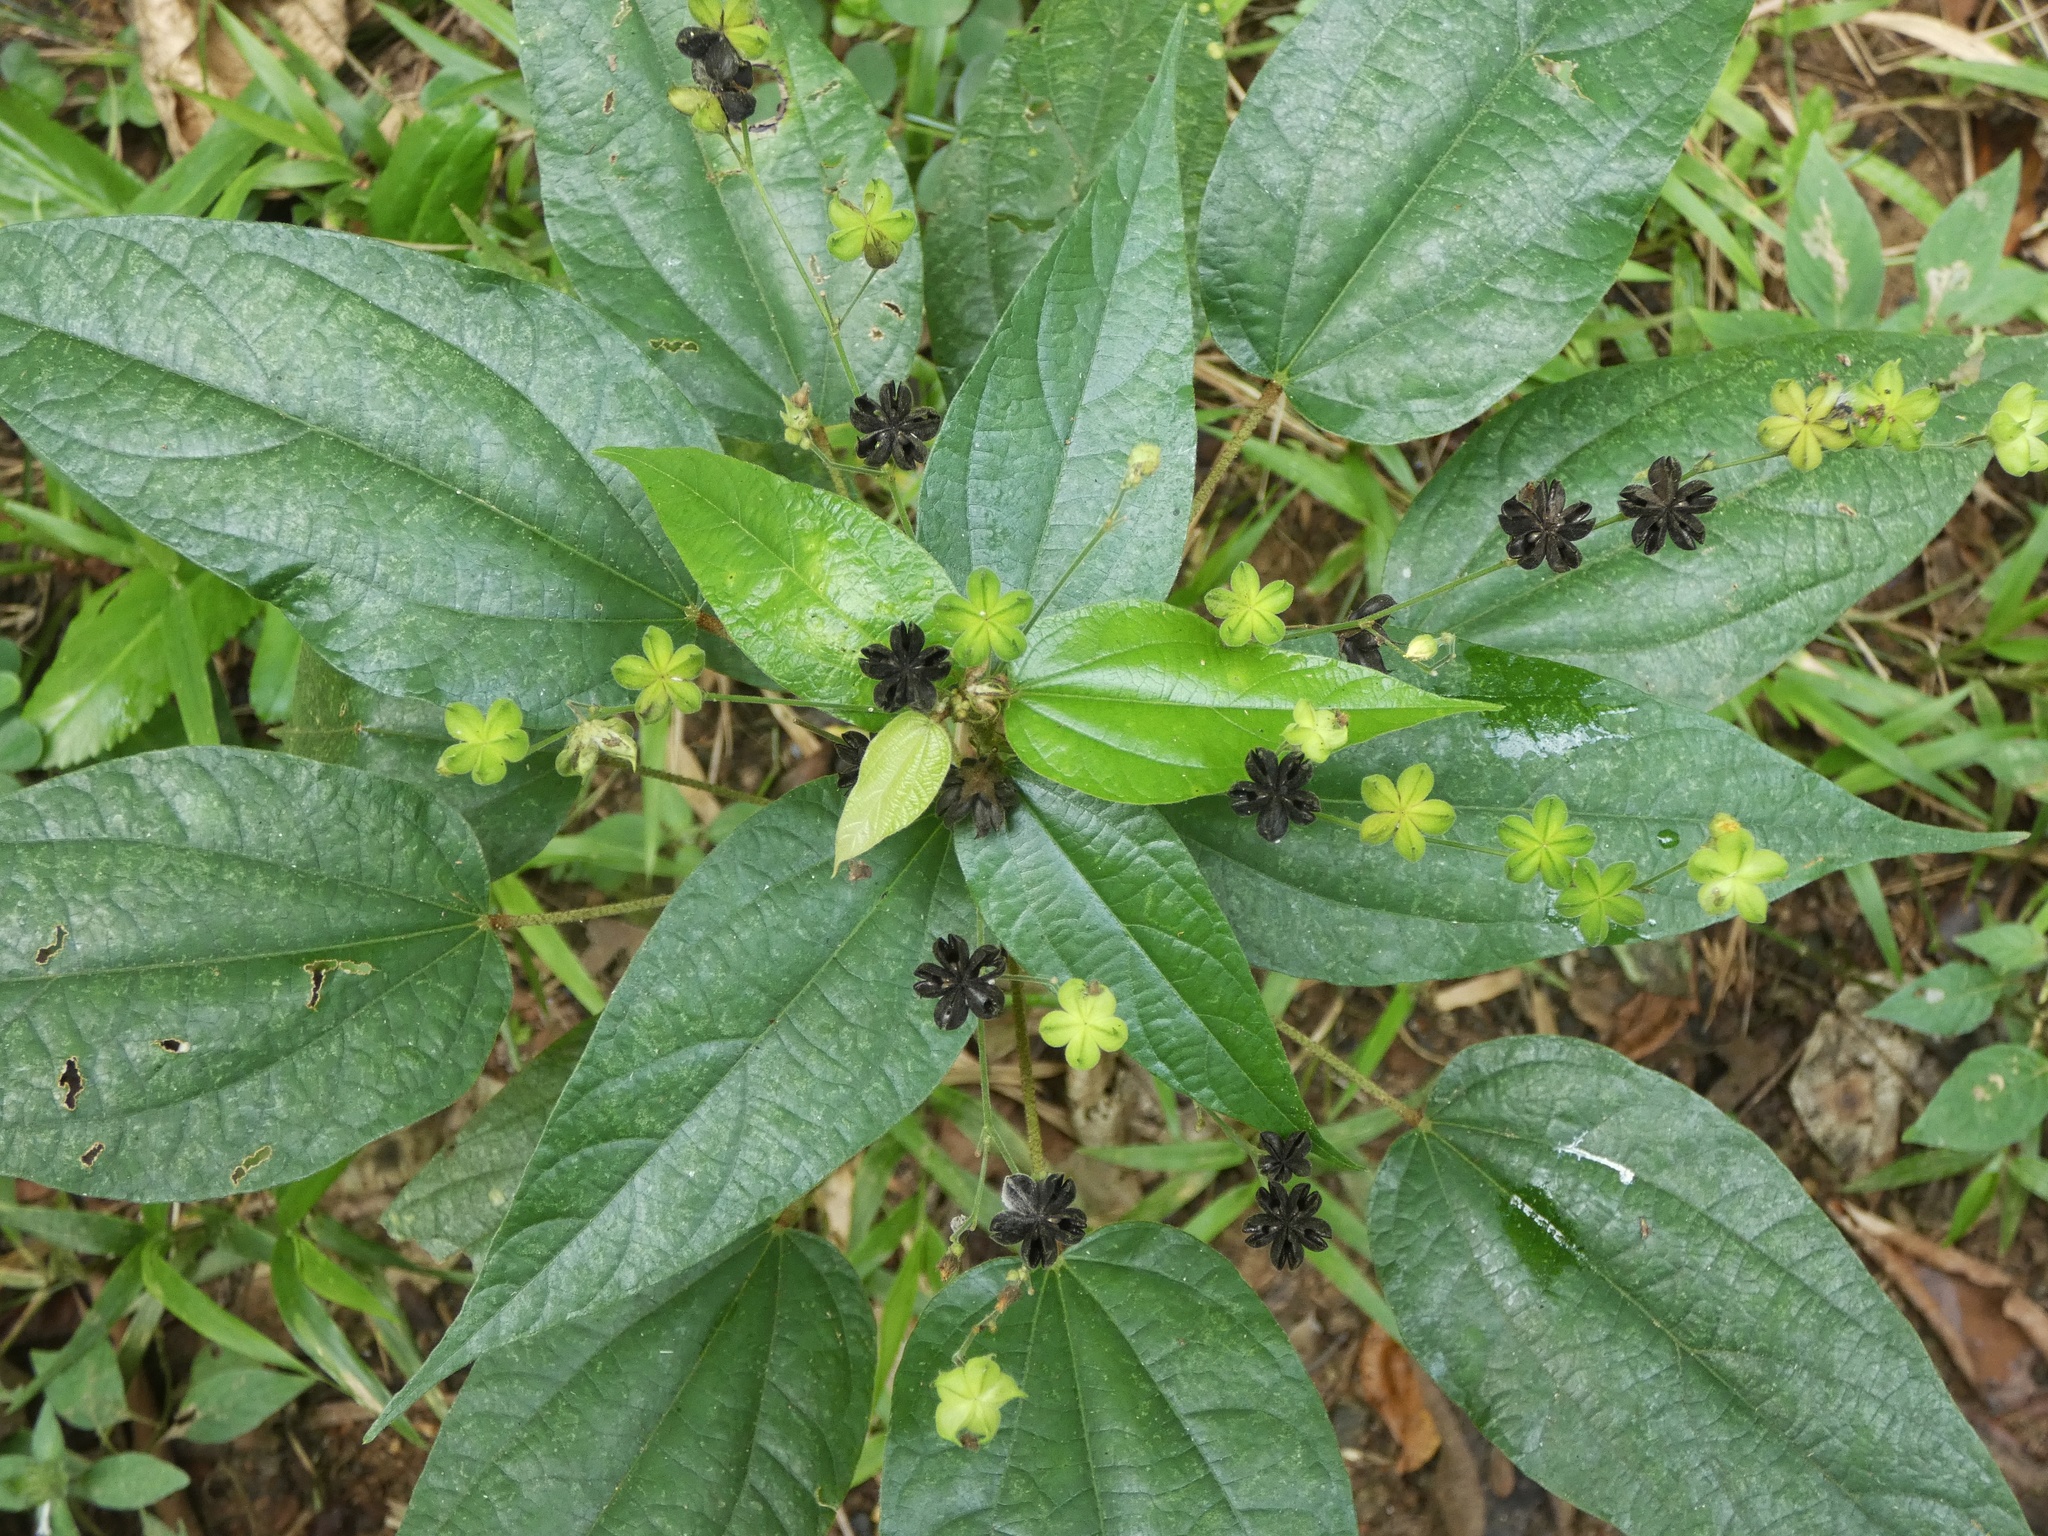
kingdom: Plantae
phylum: Tracheophyta
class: Magnoliopsida
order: Malvales
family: Malvaceae
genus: Wissadula
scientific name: Wissadula excelsior
